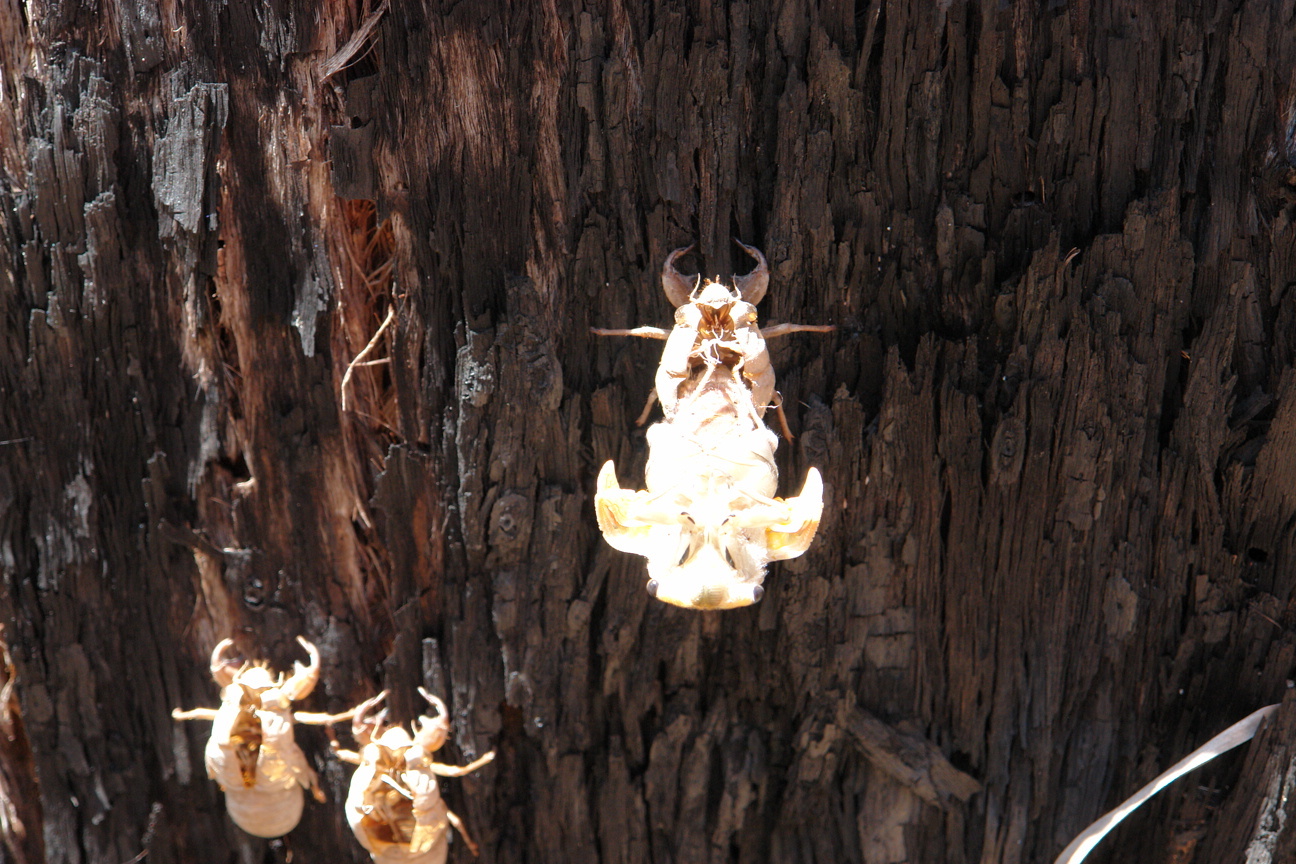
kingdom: Animalia
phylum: Arthropoda
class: Insecta
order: Hemiptera
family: Cicadidae
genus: Thopha
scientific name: Thopha saccata
